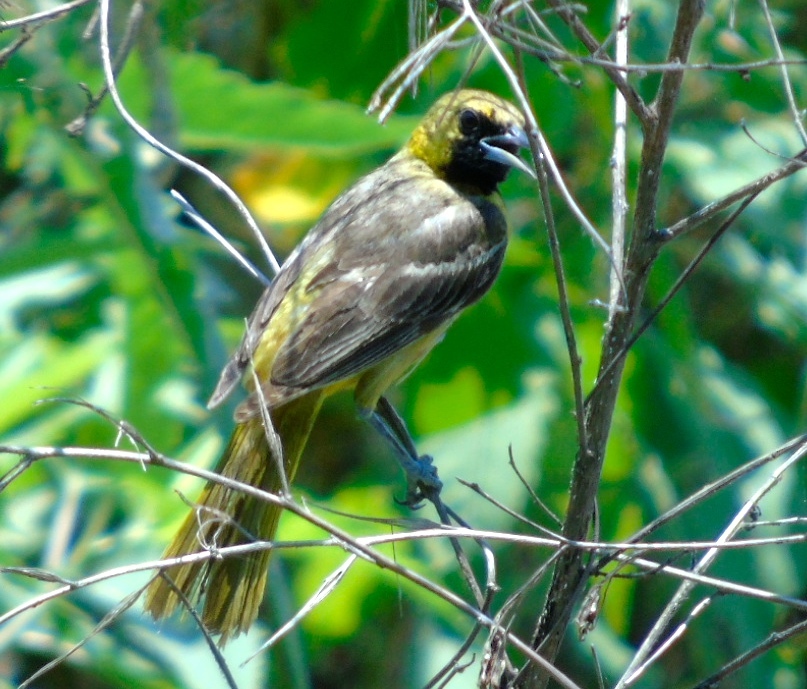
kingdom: Animalia
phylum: Chordata
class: Aves
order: Passeriformes
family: Icteridae
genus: Icterus
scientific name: Icterus cucullatus
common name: Hooded oriole
